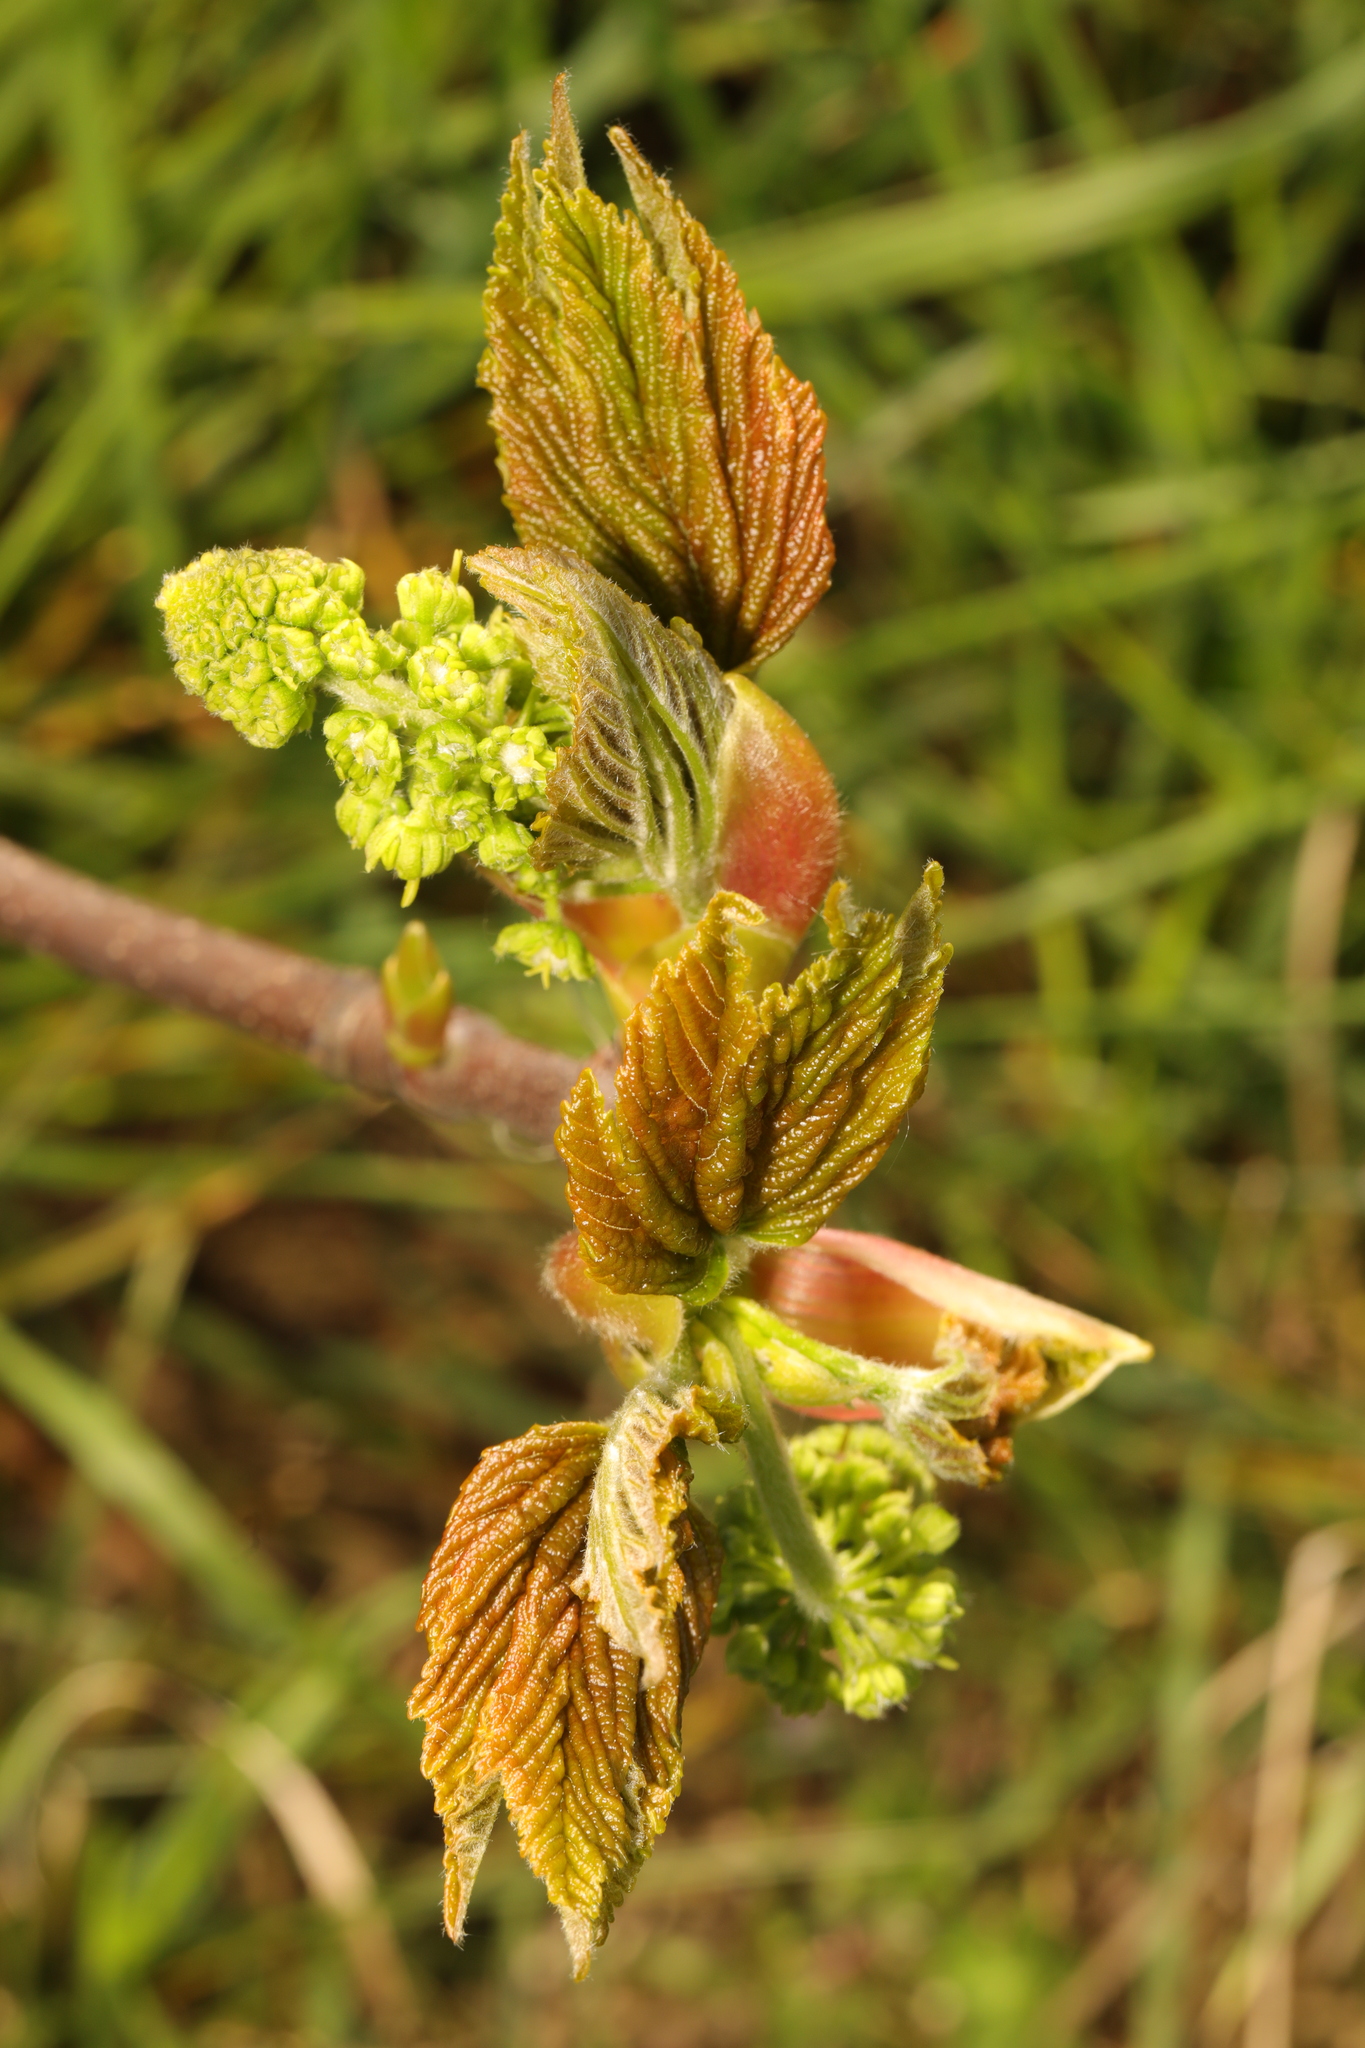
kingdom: Plantae
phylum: Tracheophyta
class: Magnoliopsida
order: Sapindales
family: Sapindaceae
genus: Acer
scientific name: Acer pseudoplatanus
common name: Sycamore
